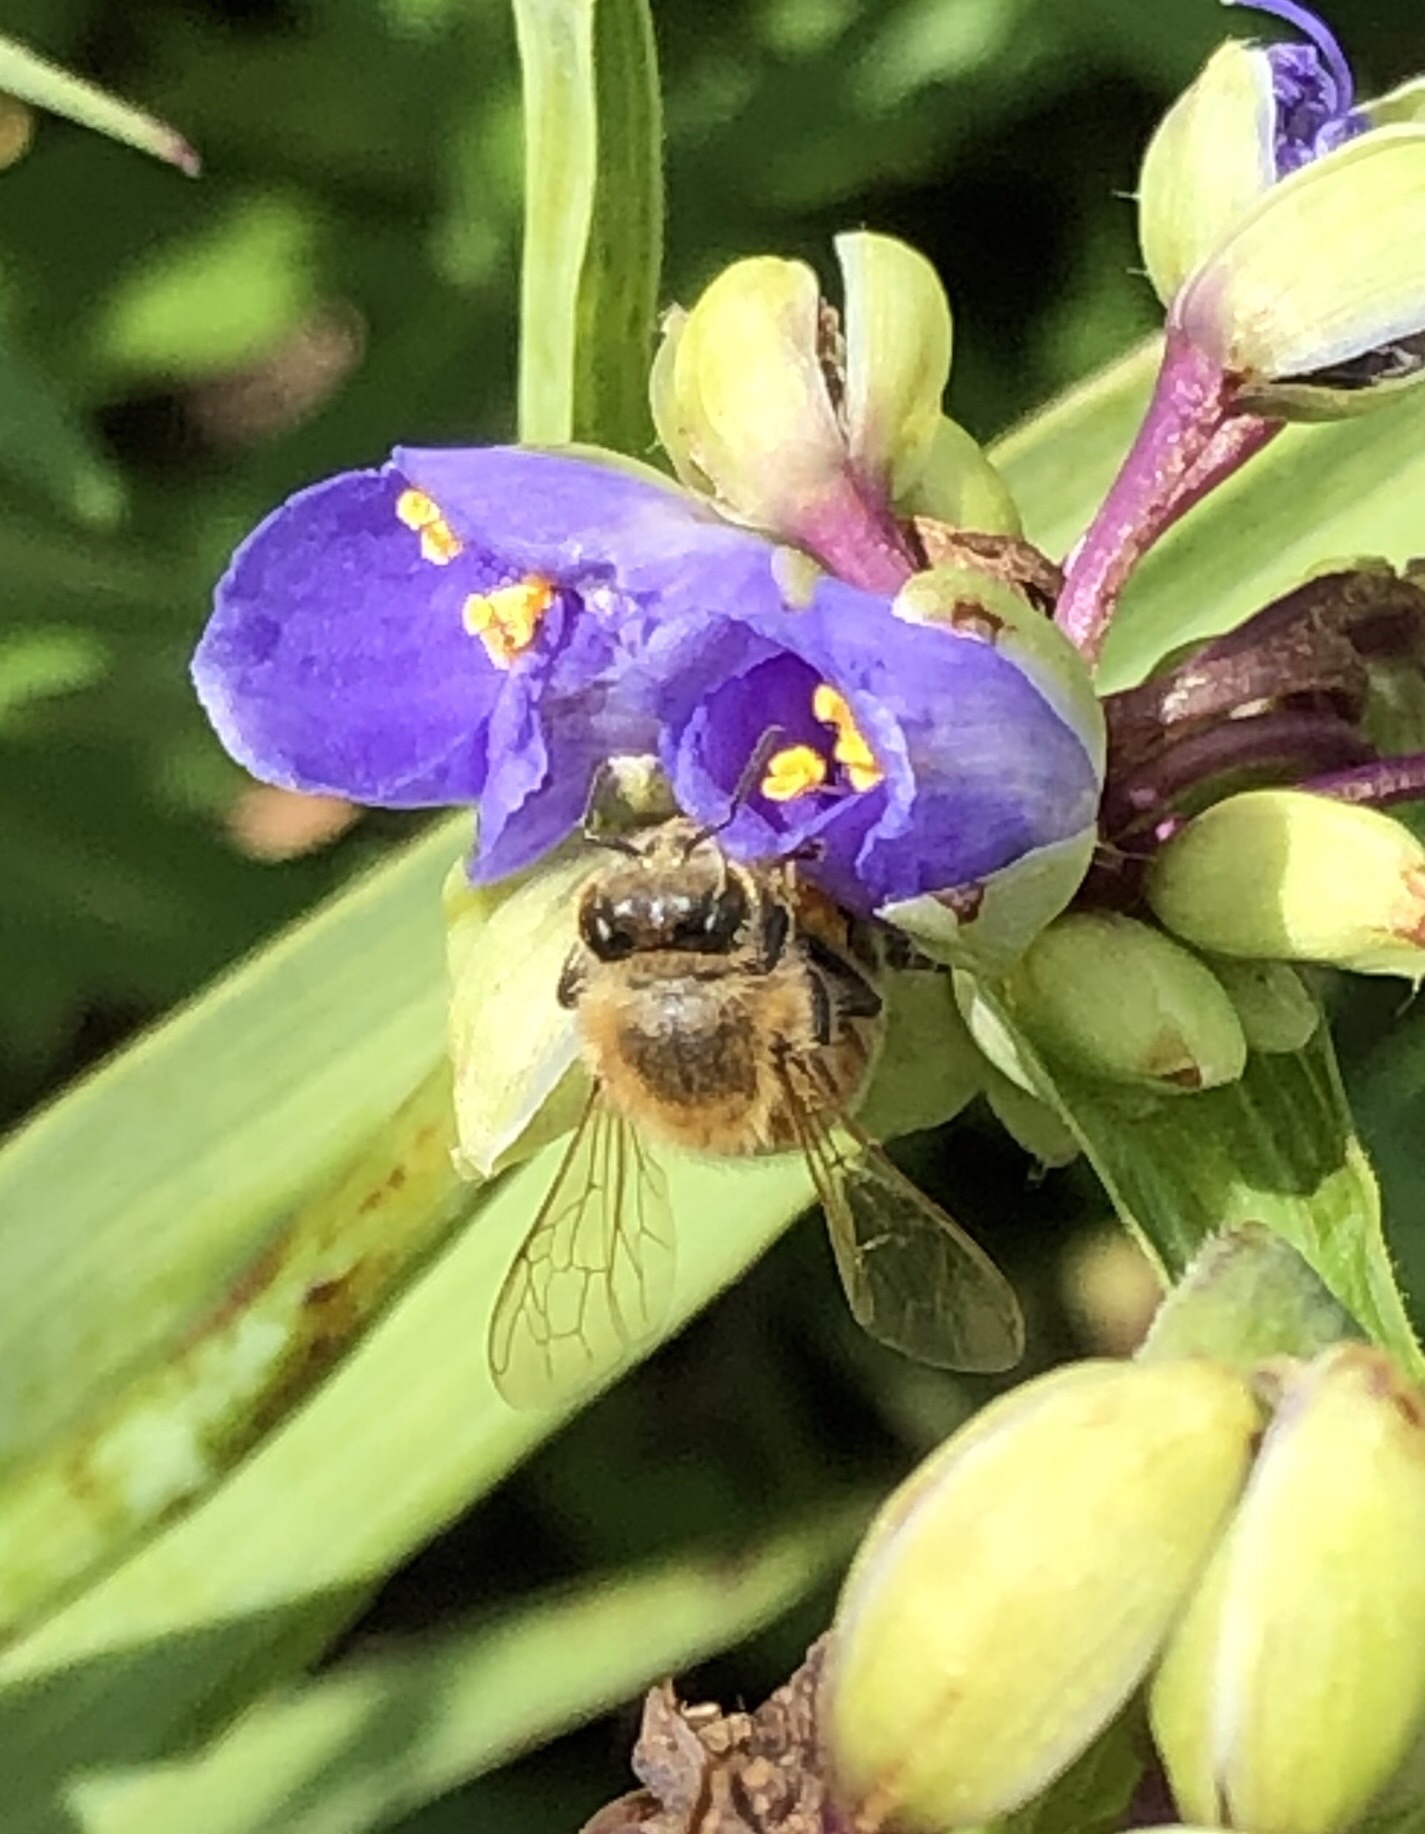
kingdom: Animalia
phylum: Arthropoda
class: Insecta
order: Hymenoptera
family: Apidae
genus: Apis
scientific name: Apis mellifera
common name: Honey bee
